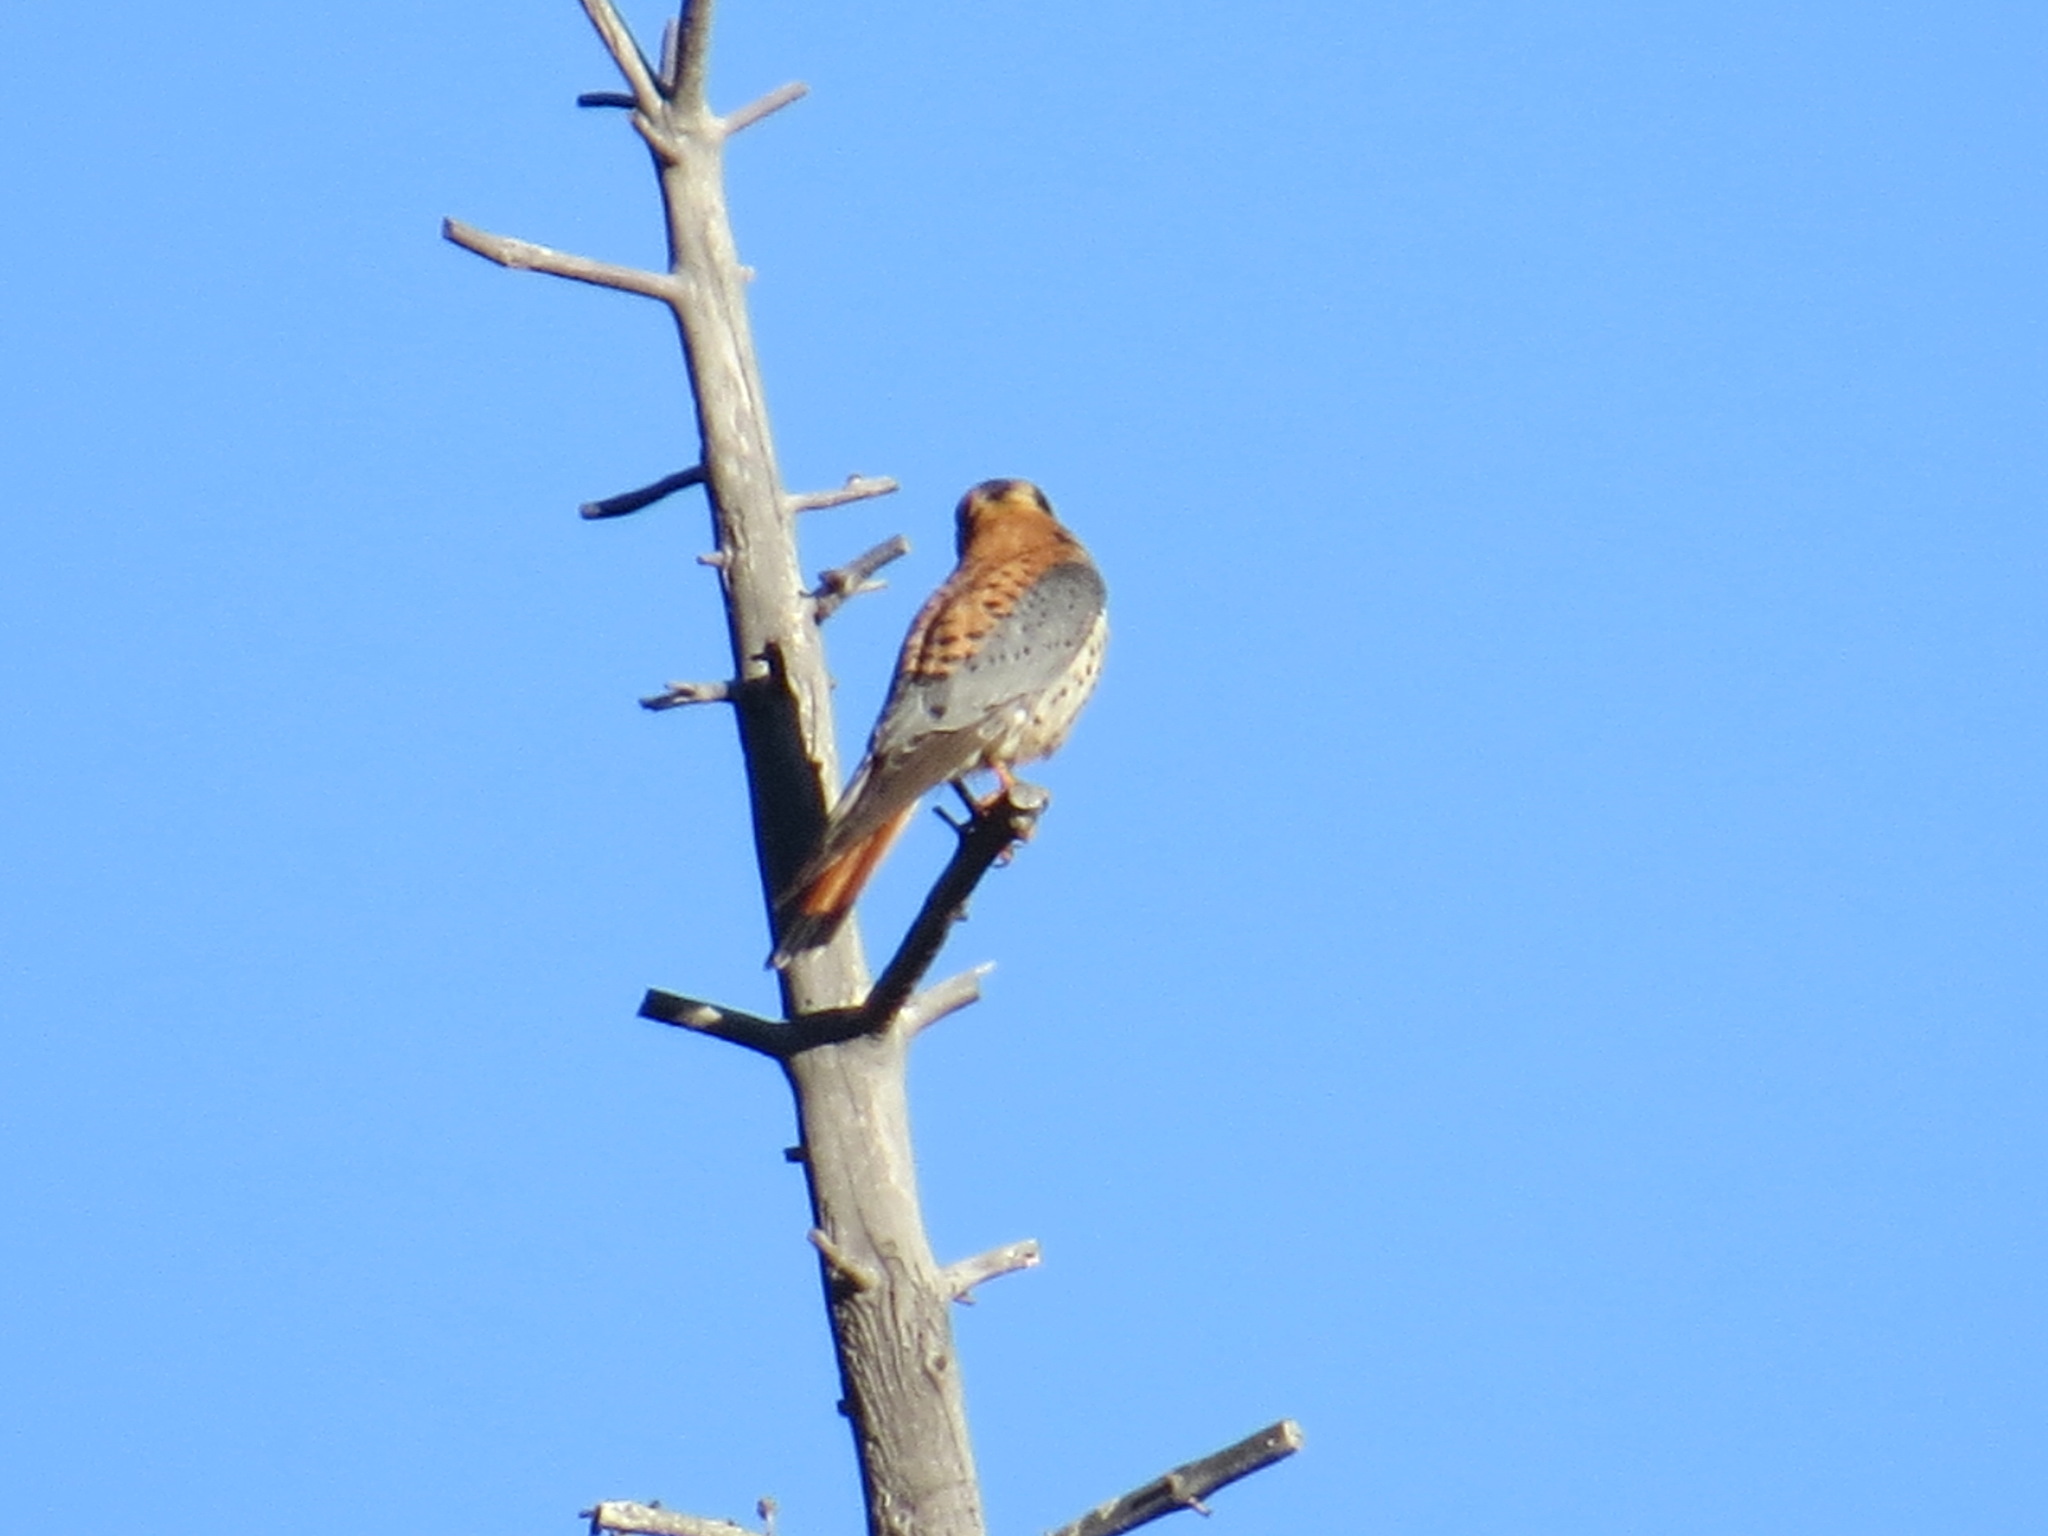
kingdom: Animalia
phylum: Chordata
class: Aves
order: Falconiformes
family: Falconidae
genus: Falco
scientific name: Falco sparverius
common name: American kestrel
